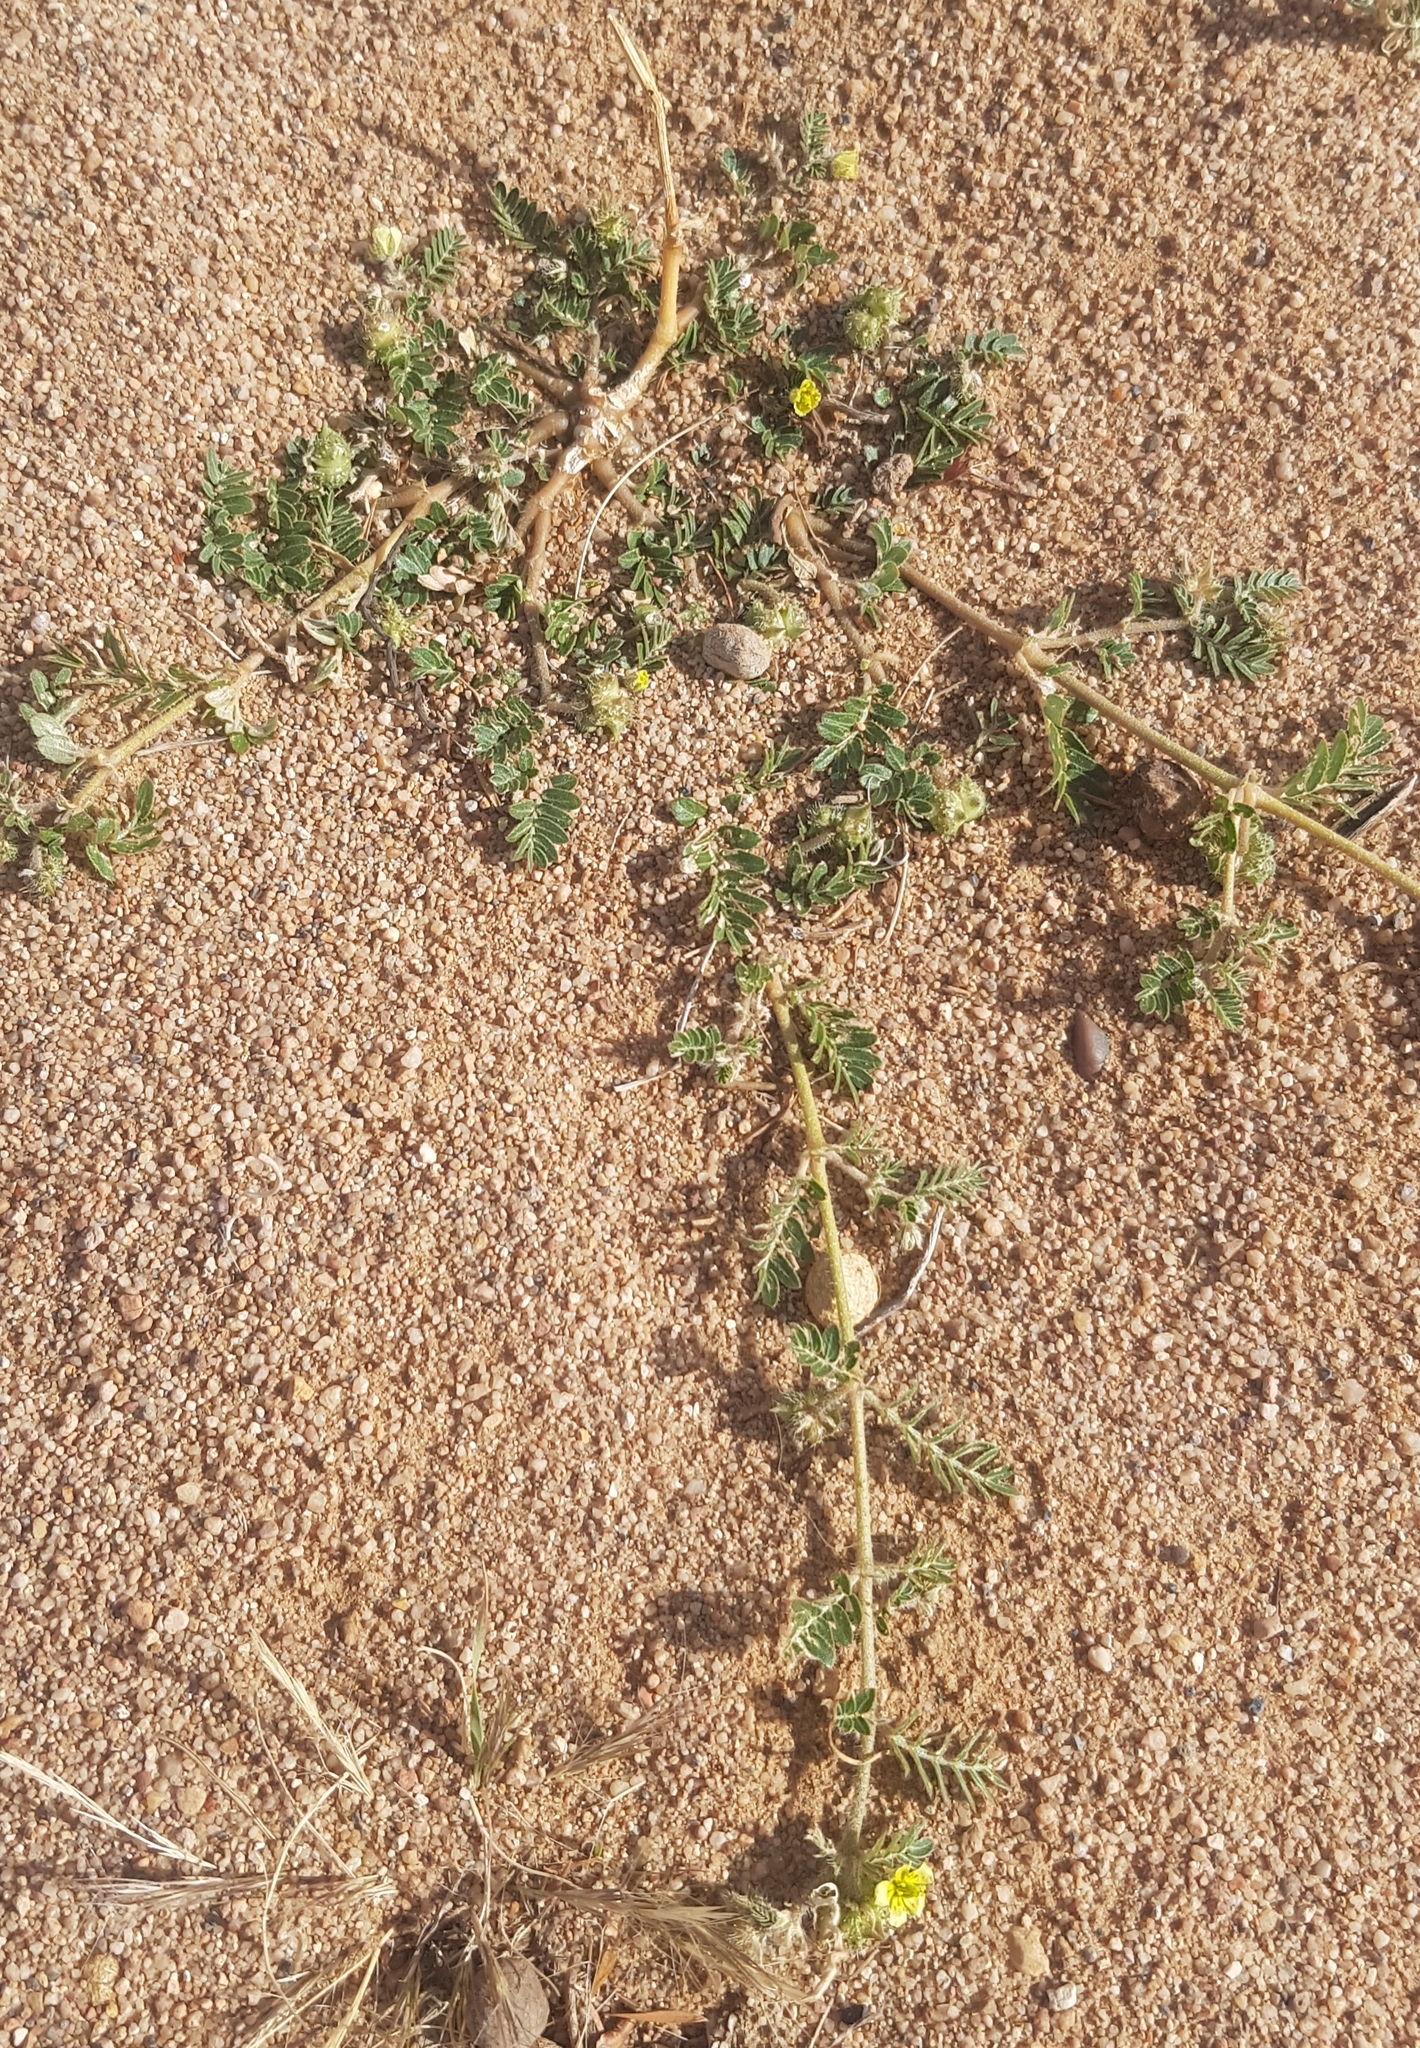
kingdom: Plantae
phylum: Tracheophyta
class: Magnoliopsida
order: Zygophyllales
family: Zygophyllaceae
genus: Tribulus
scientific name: Tribulus terrestris
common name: Puncturevine
